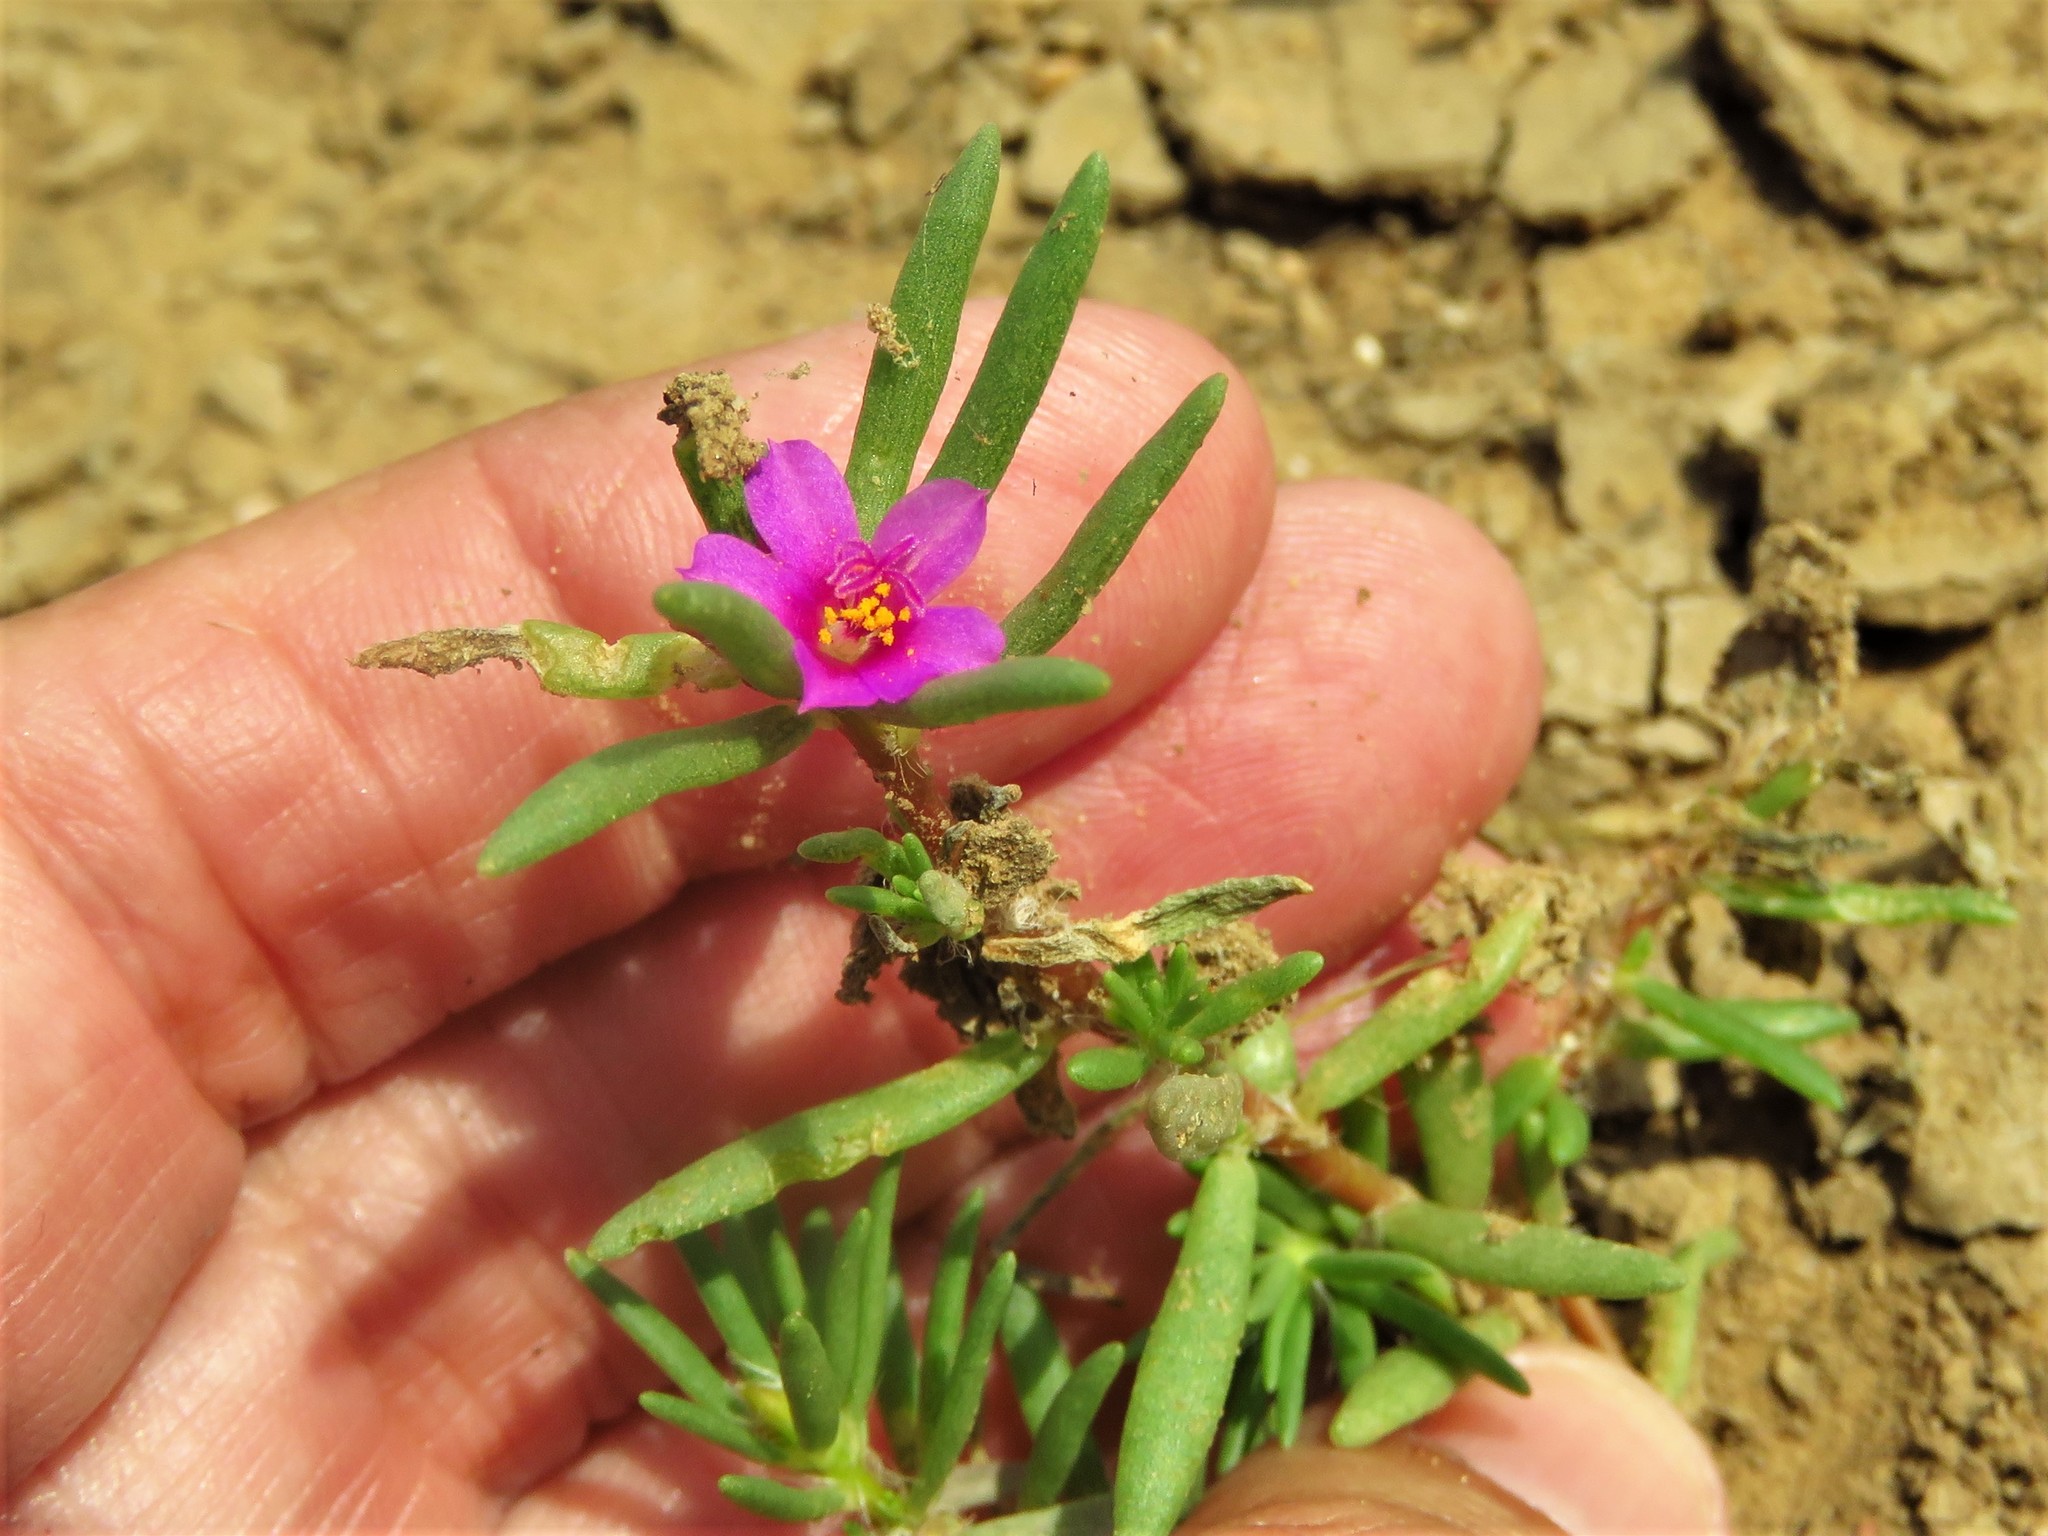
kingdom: Plantae
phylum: Tracheophyta
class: Magnoliopsida
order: Caryophyllales
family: Portulacaceae
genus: Portulaca
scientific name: Portulaca pilosa
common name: Kiss me quick
